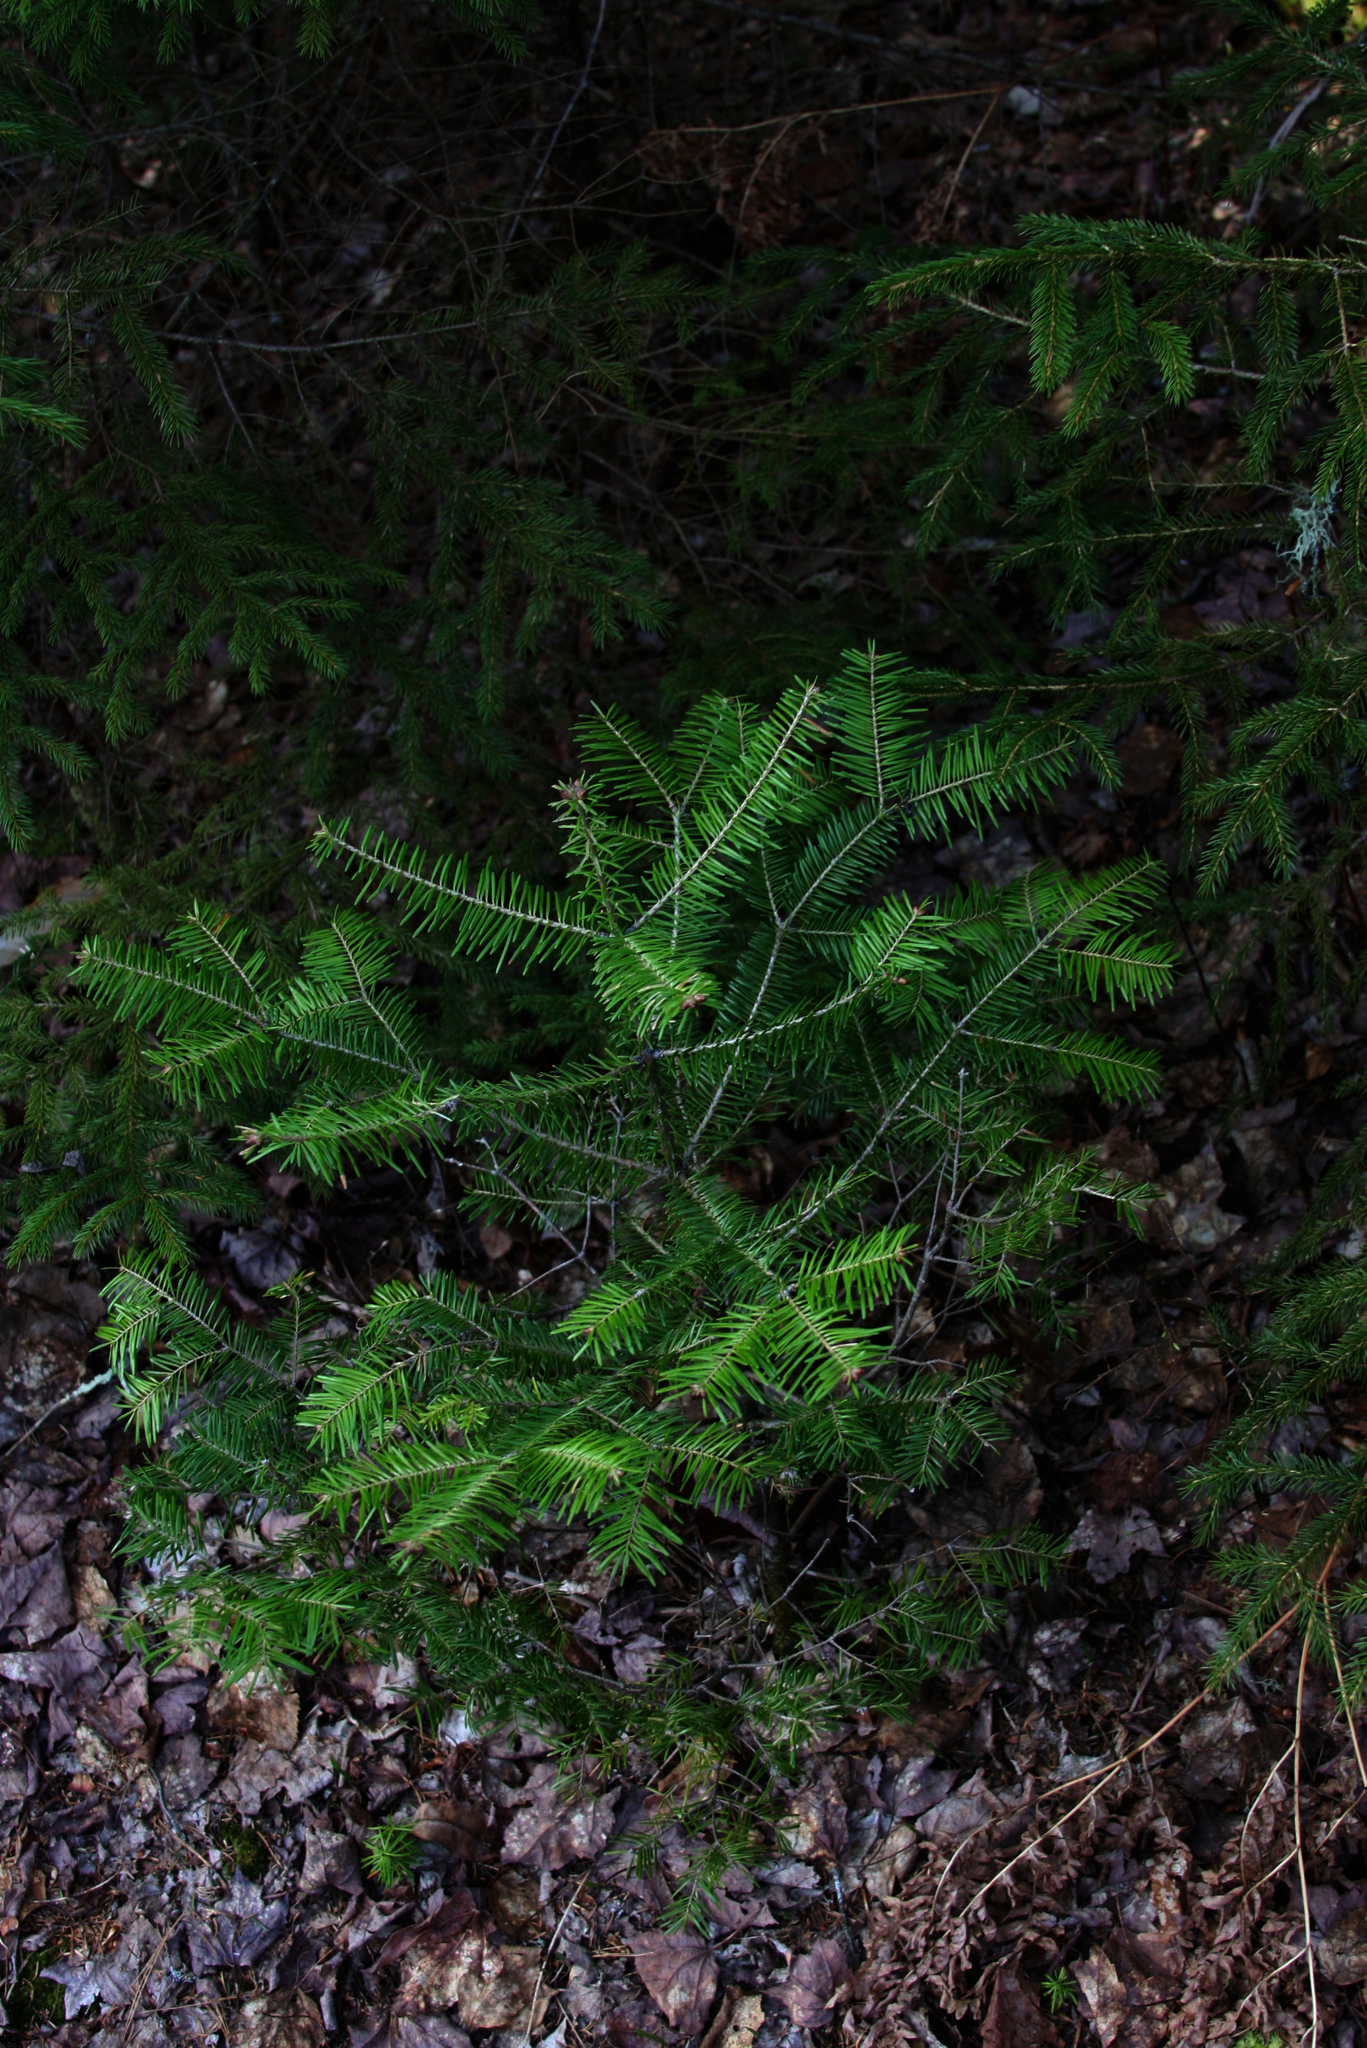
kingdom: Plantae
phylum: Tracheophyta
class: Pinopsida
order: Pinales
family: Pinaceae
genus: Abies
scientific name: Abies balsamea
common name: Balsam fir
